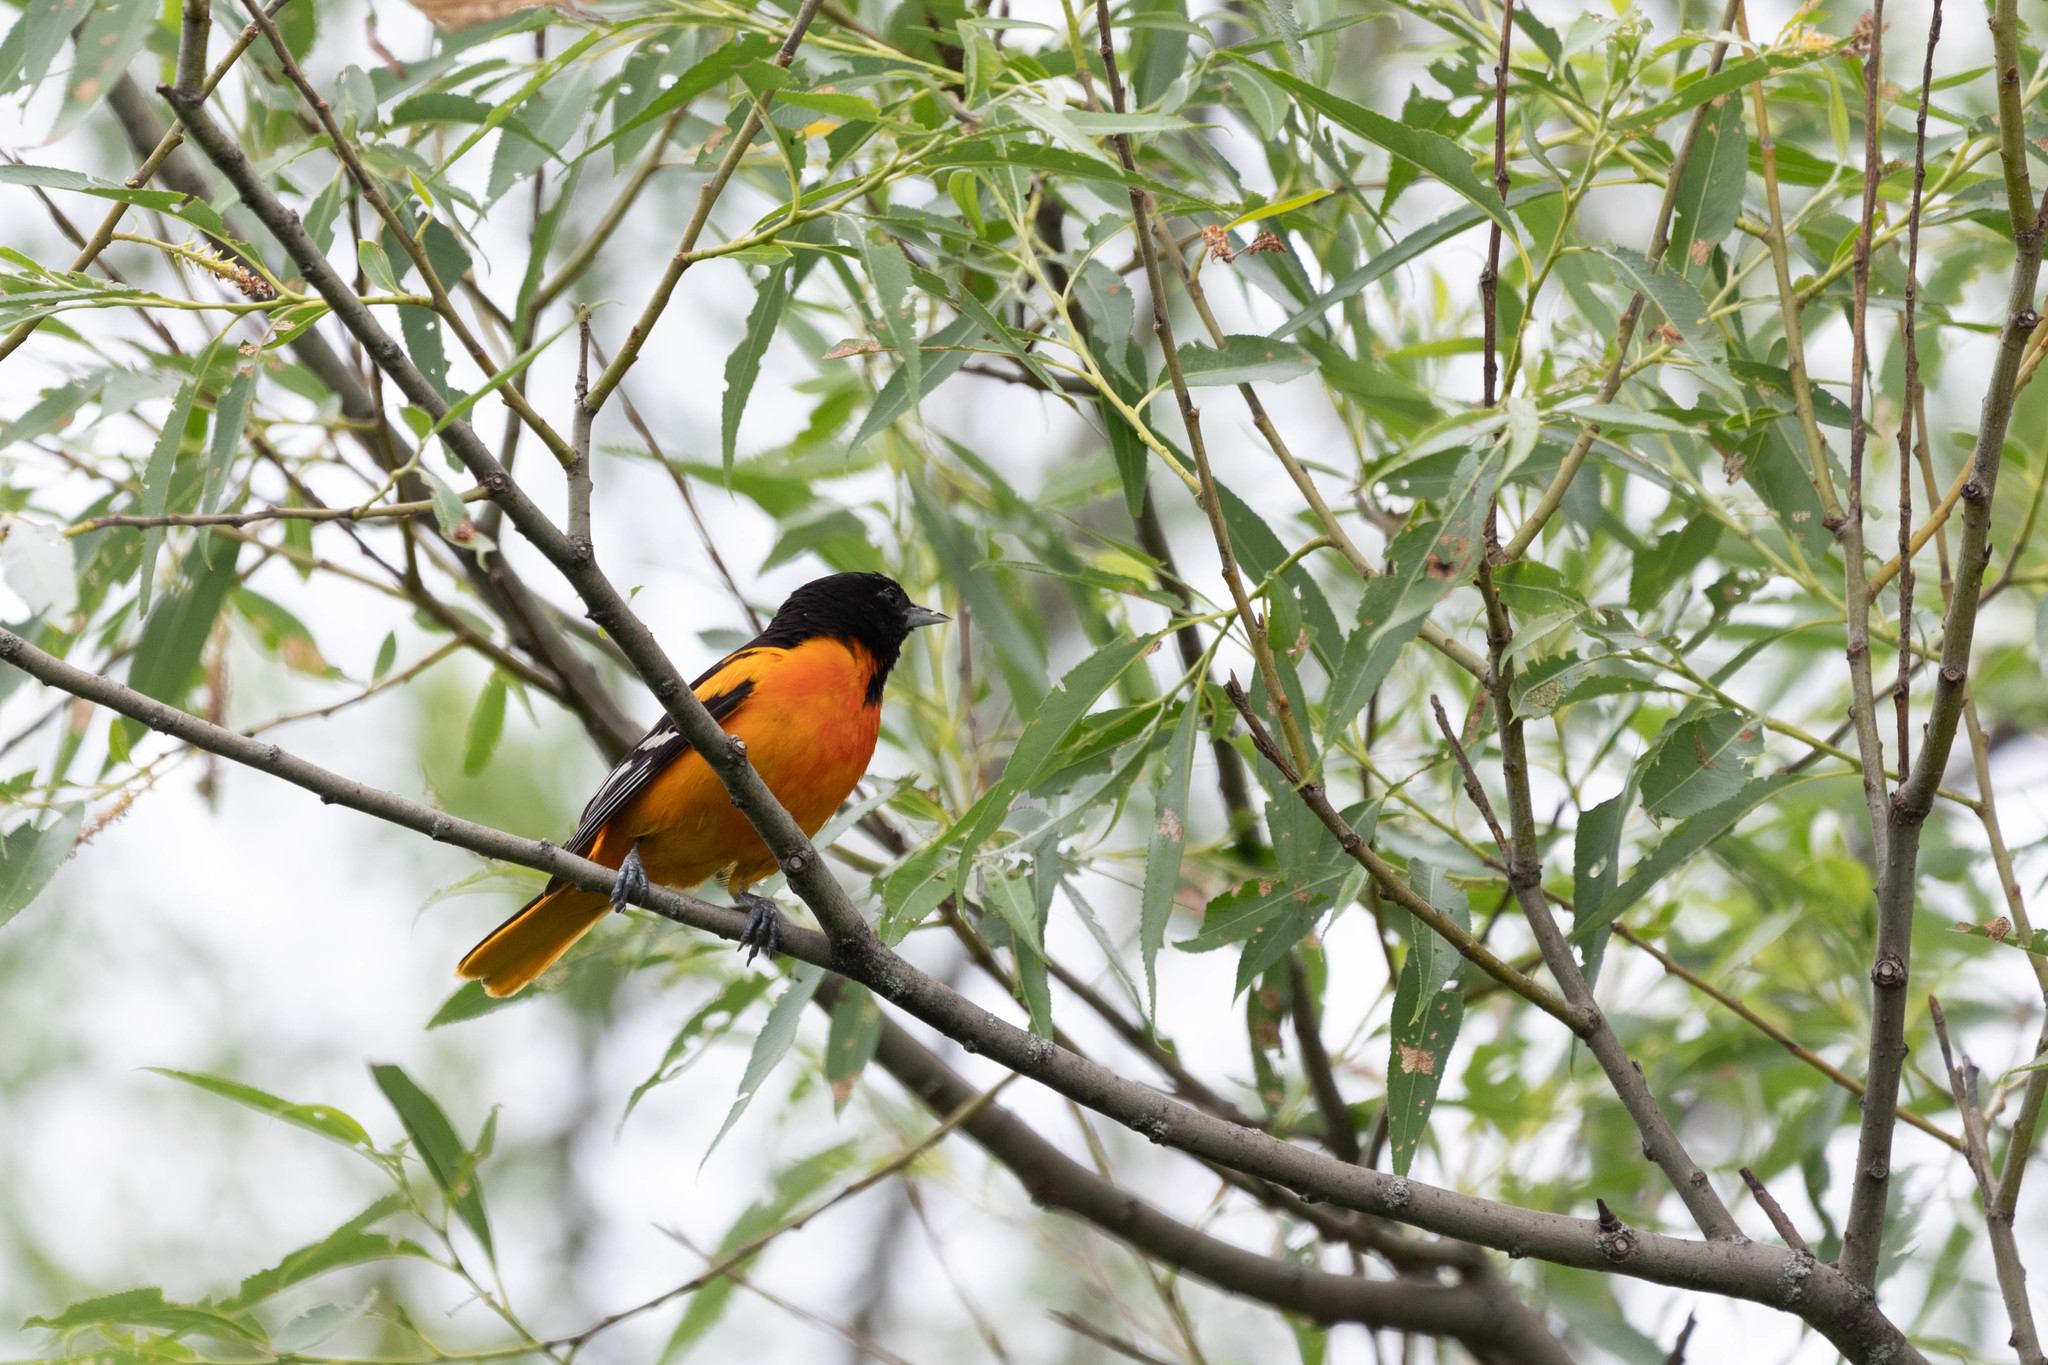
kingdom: Animalia
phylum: Chordata
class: Aves
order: Passeriformes
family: Icteridae
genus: Icterus
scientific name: Icterus galbula
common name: Baltimore oriole
